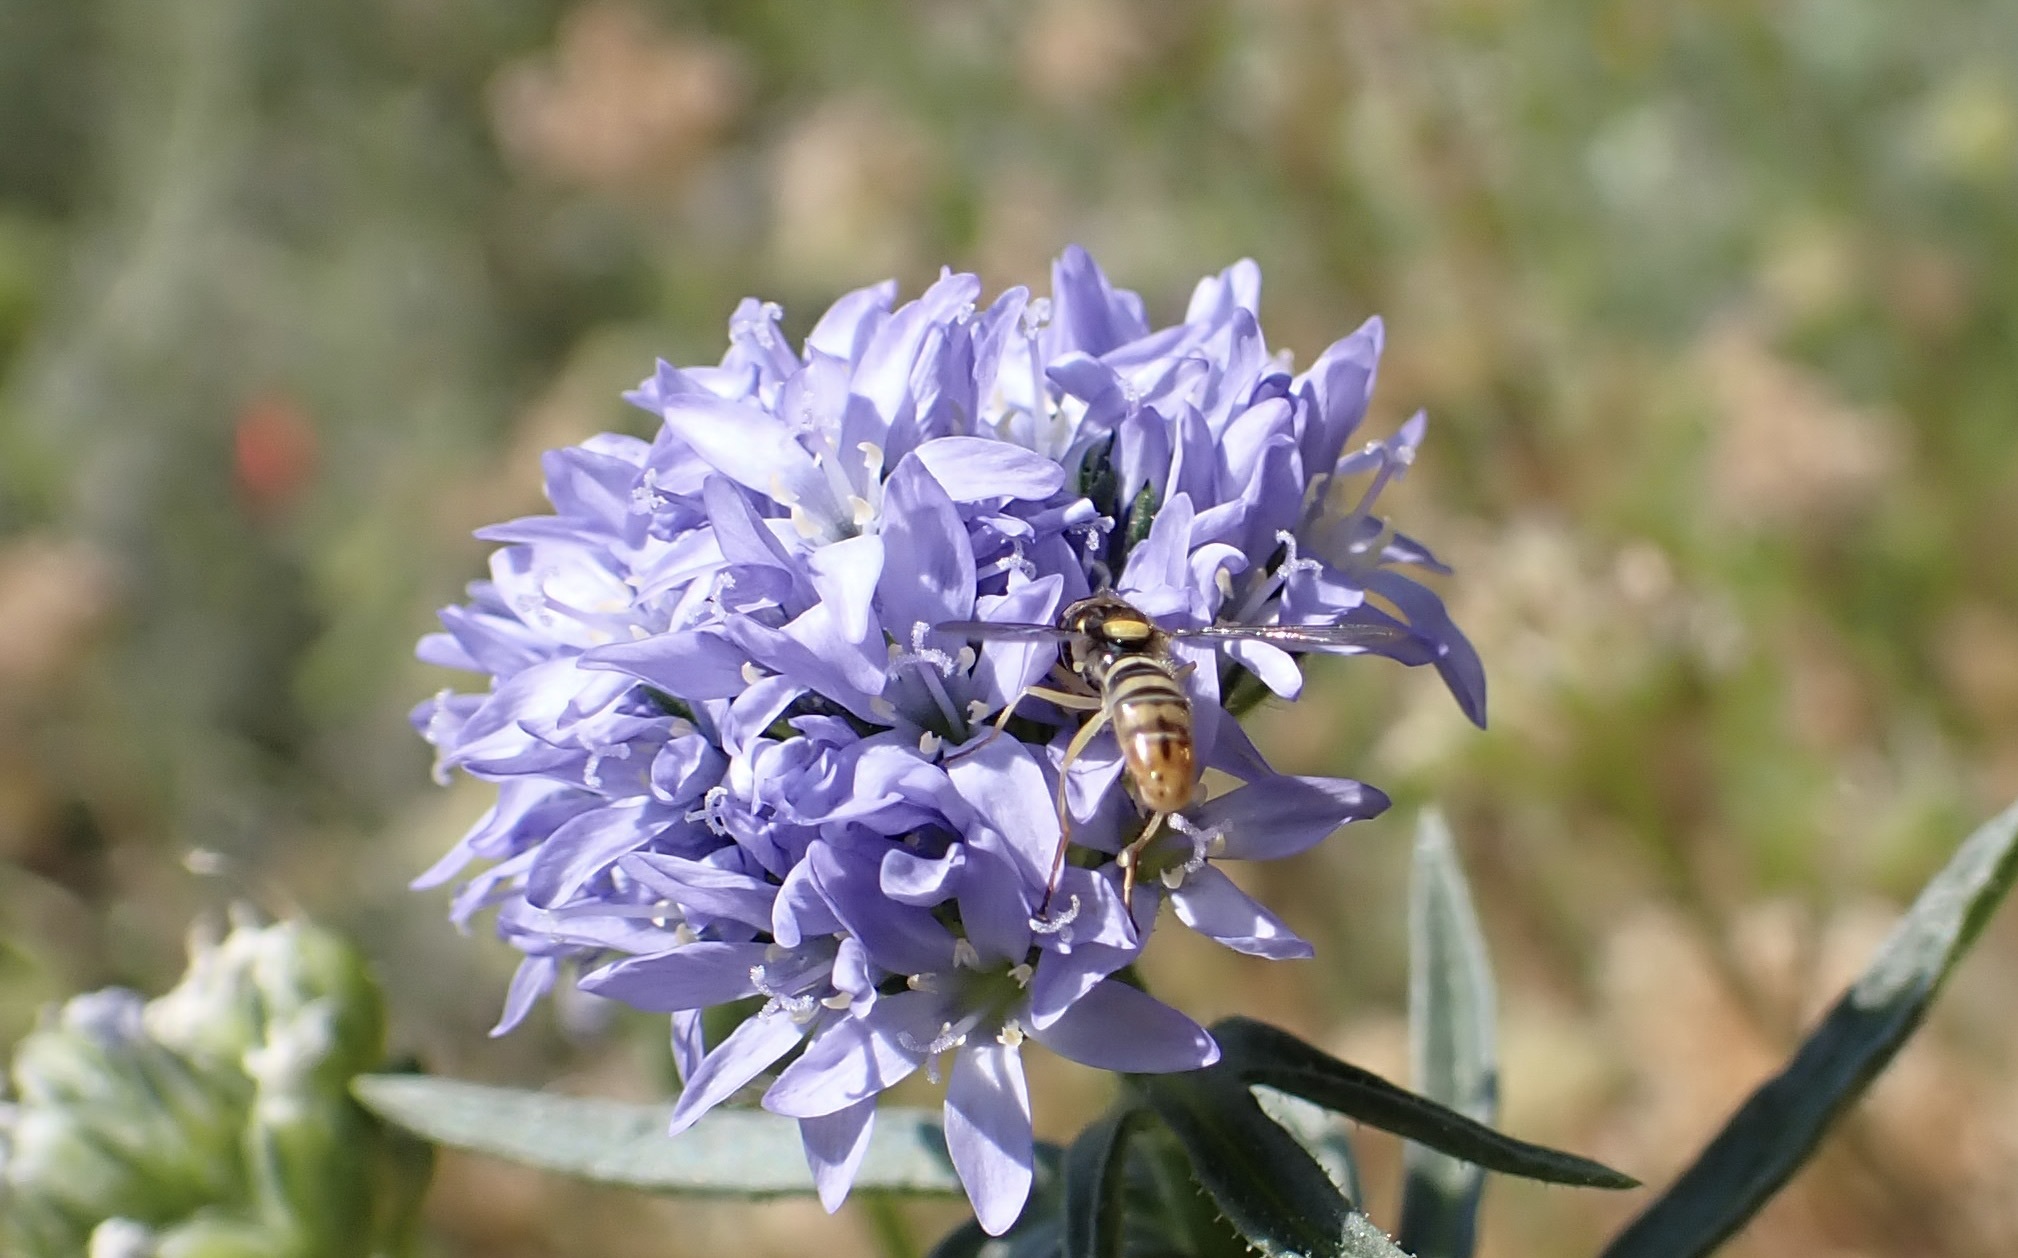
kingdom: Animalia
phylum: Arthropoda
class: Insecta
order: Diptera
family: Syrphidae
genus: Sphaerophoria
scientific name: Sphaerophoria sulphuripes
